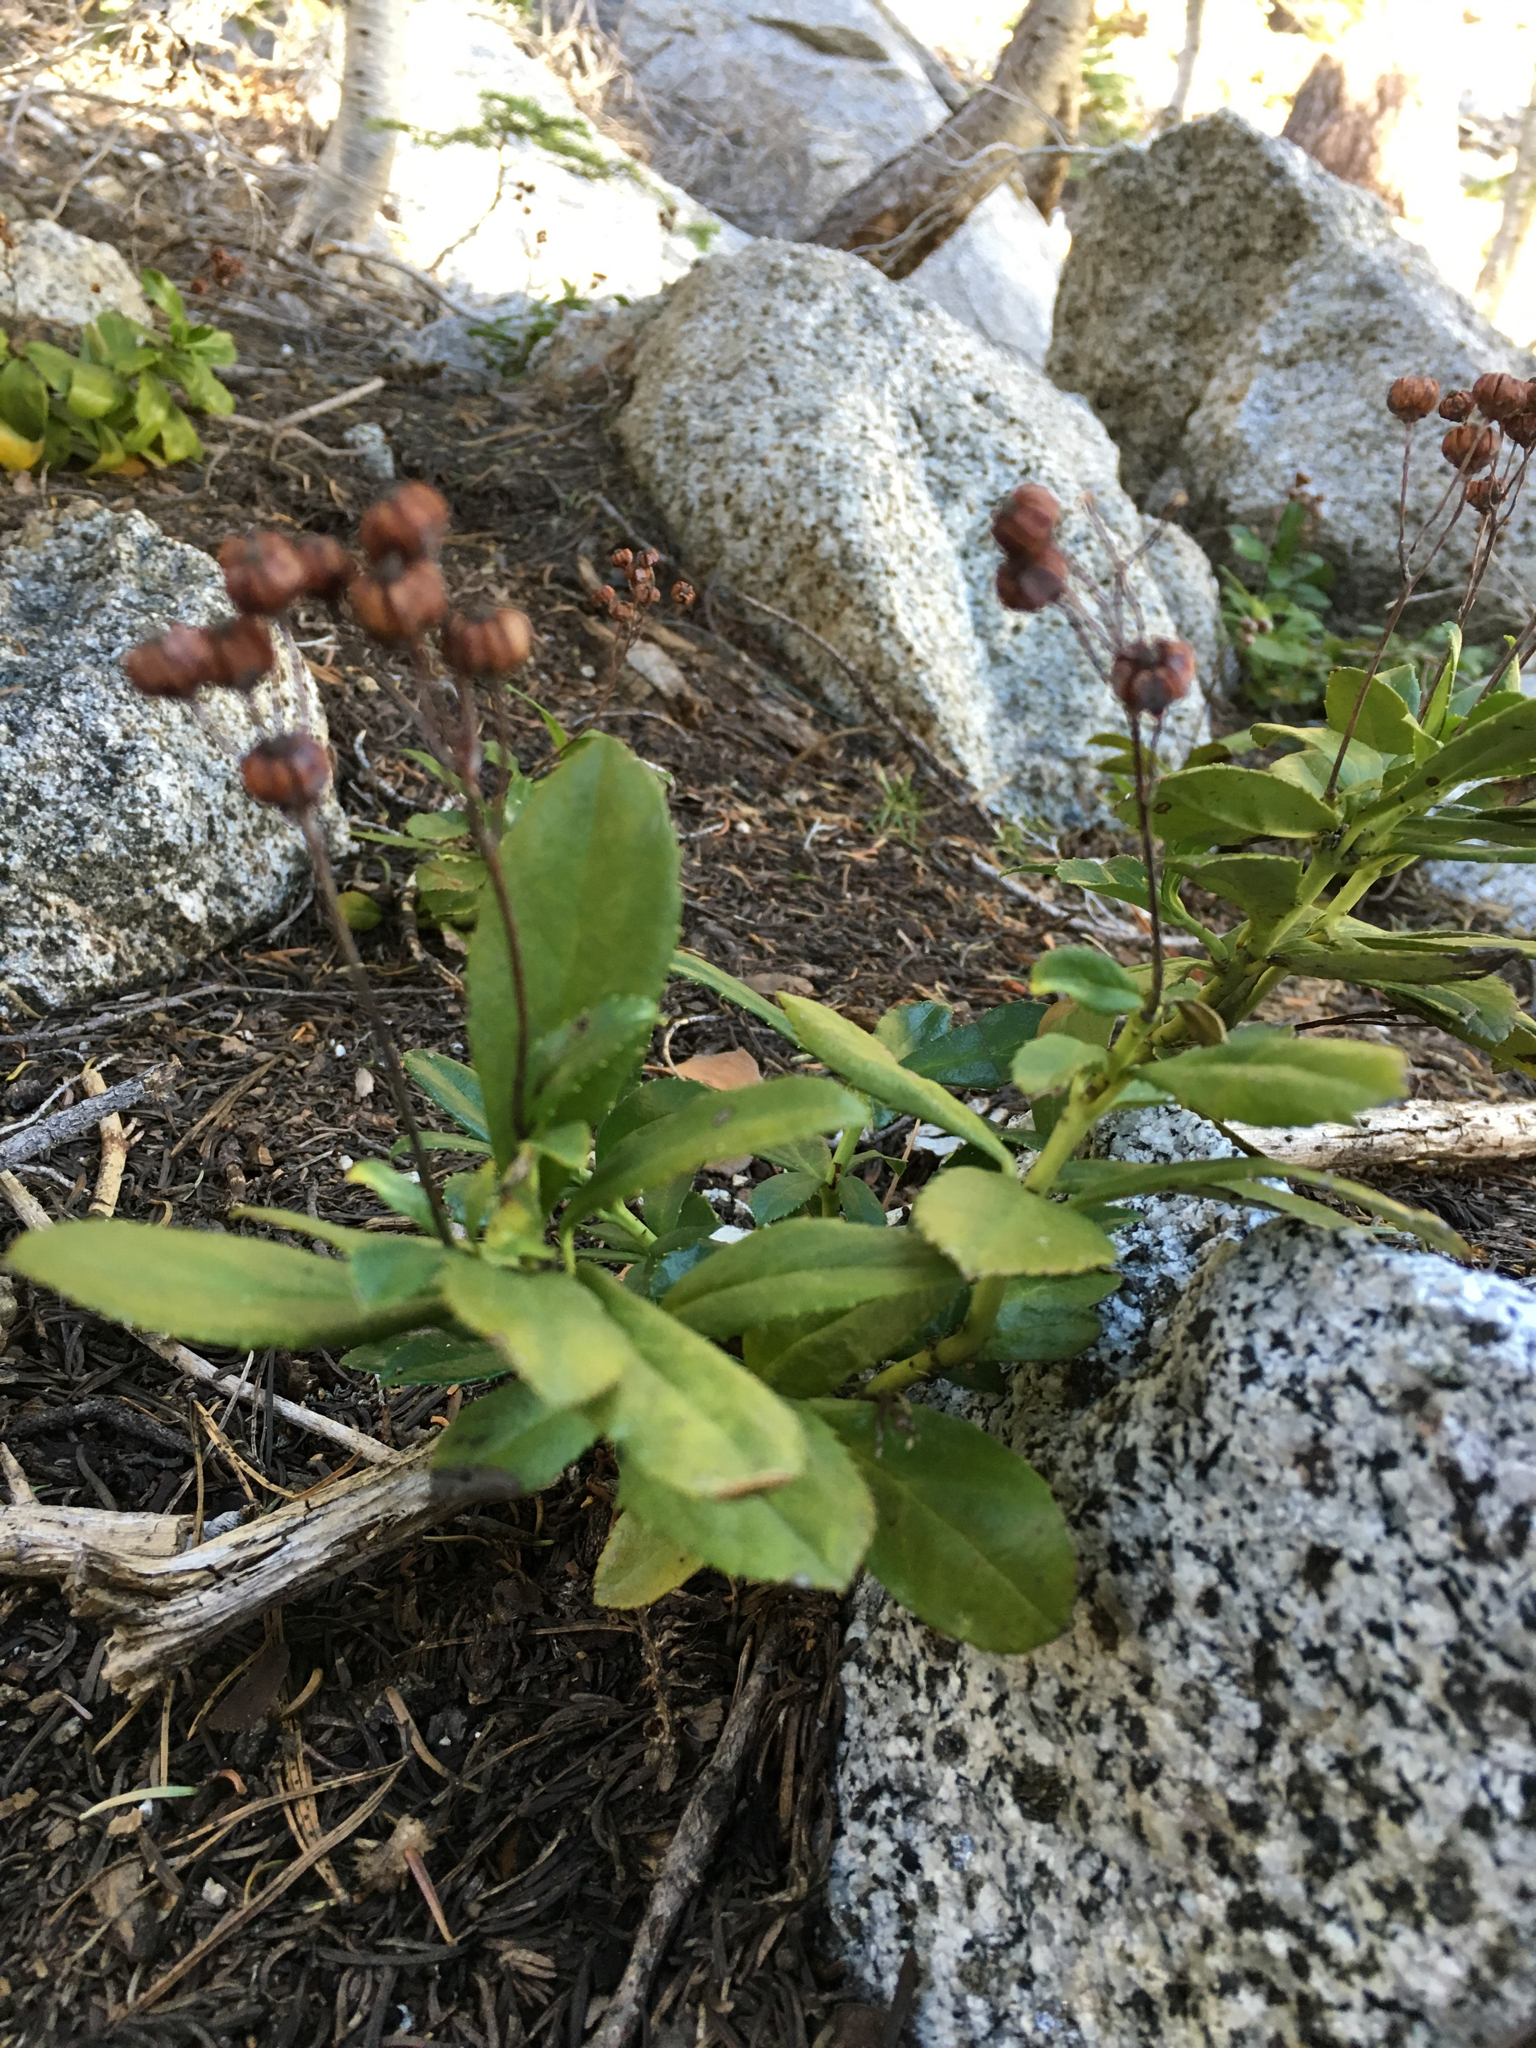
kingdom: Plantae
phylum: Tracheophyta
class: Magnoliopsida
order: Ericales
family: Ericaceae
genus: Chimaphila
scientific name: Chimaphila umbellata
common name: Pipsissewa
